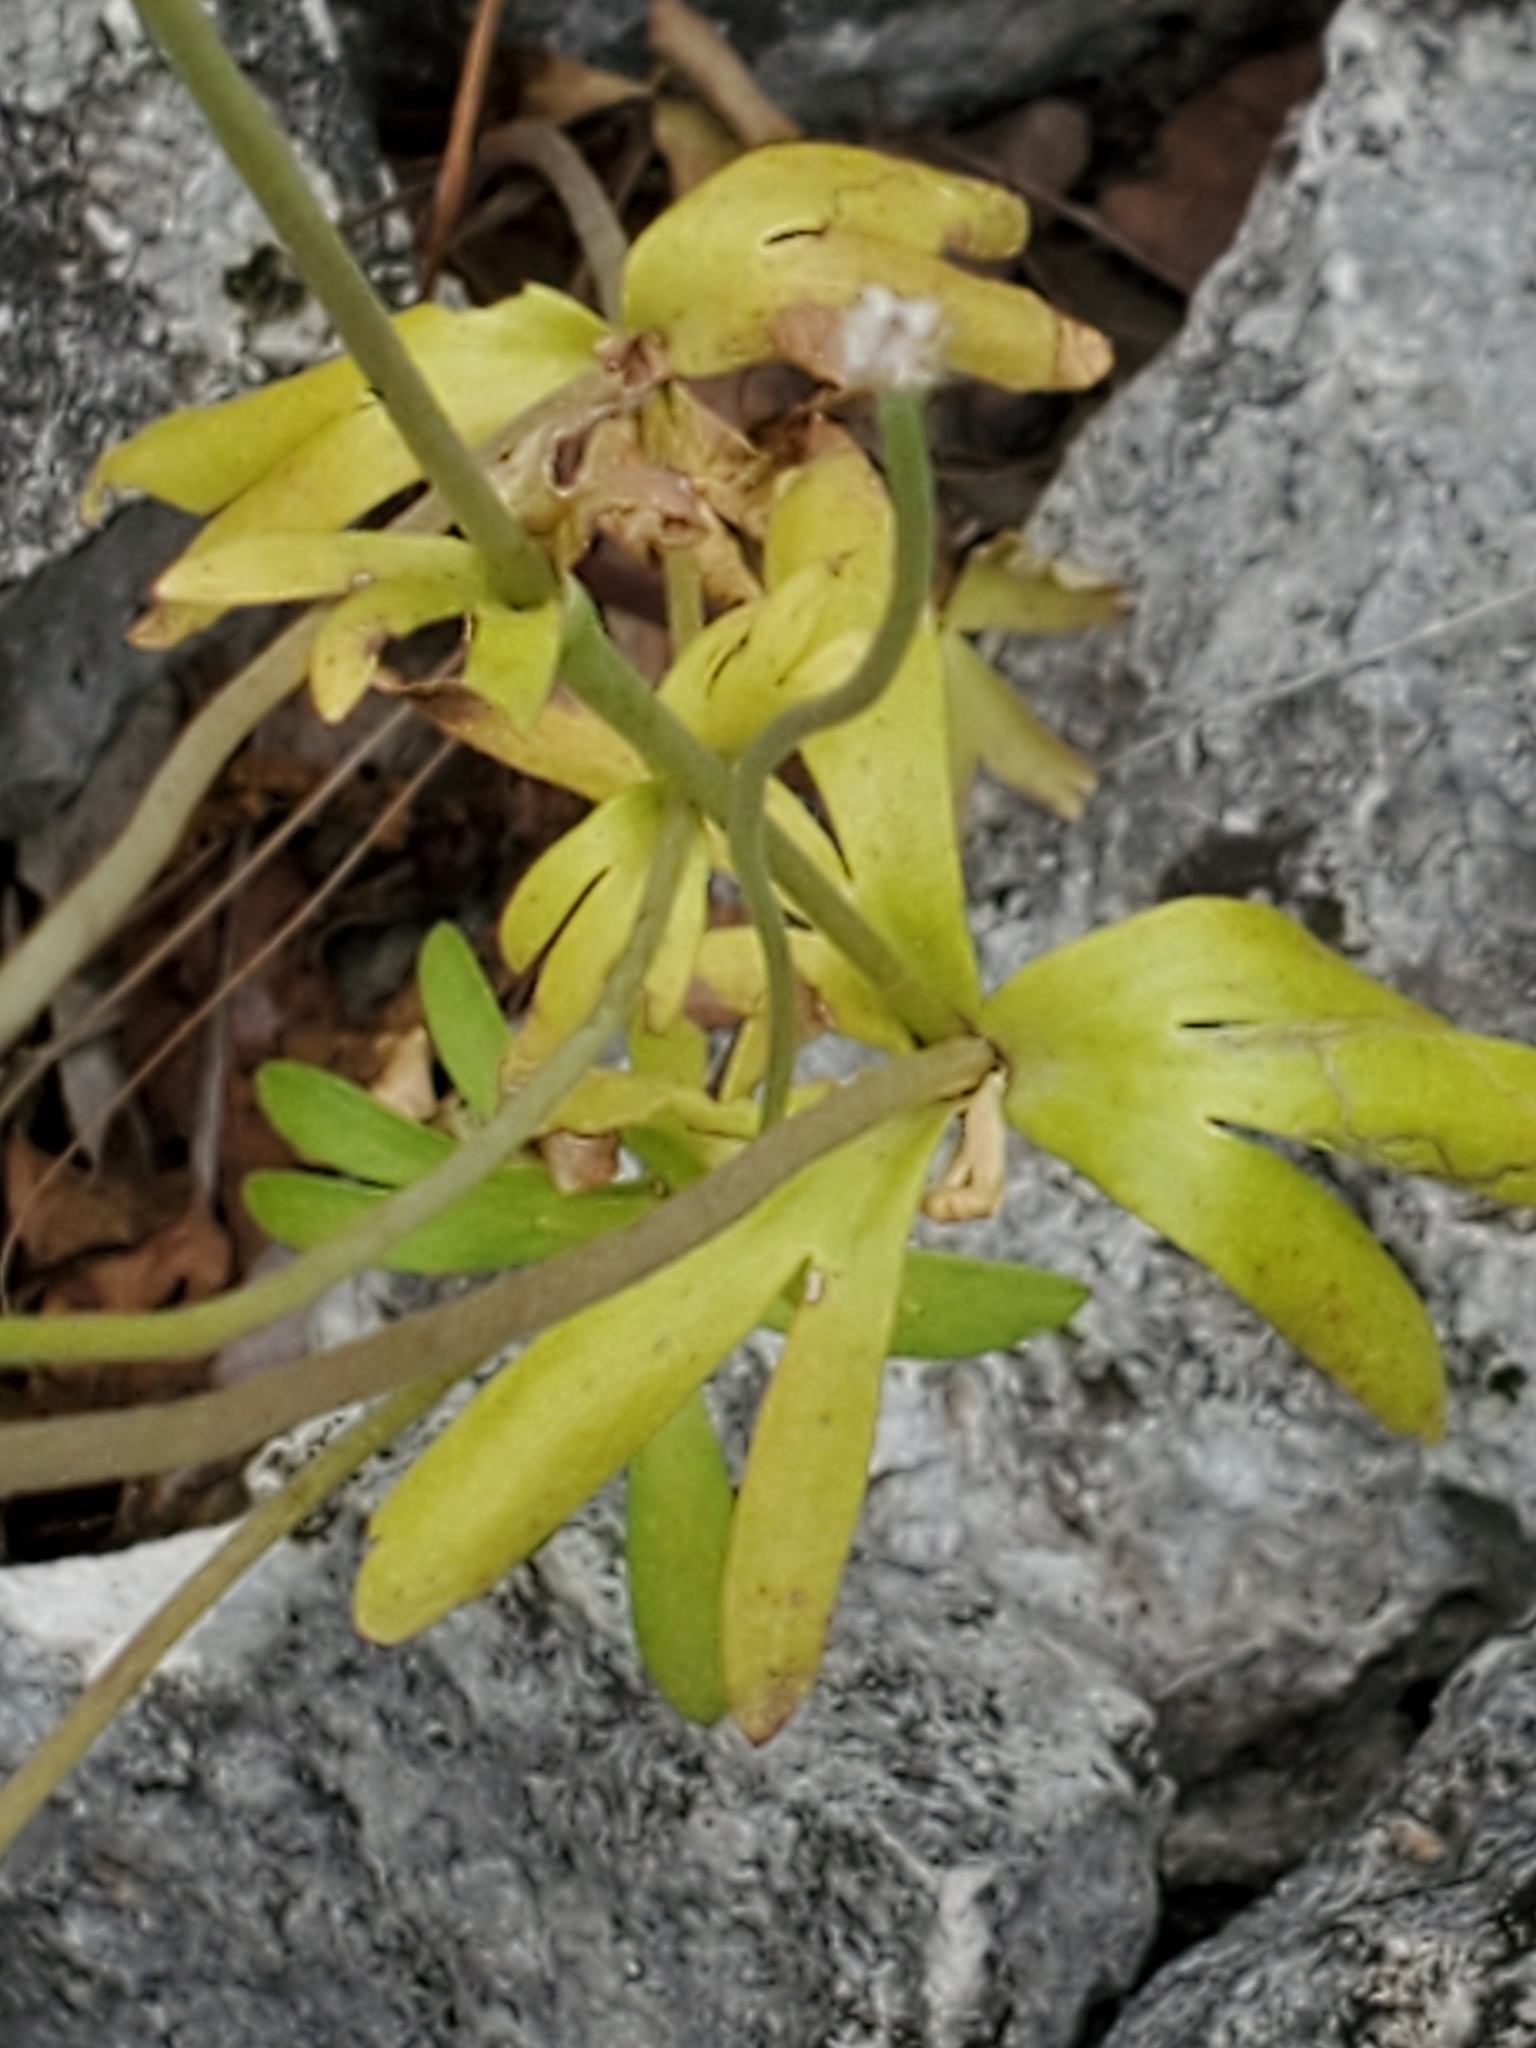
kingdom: Plantae
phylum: Tracheophyta
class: Magnoliopsida
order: Ranunculales
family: Ranunculaceae
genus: Anemone
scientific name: Anemone edwardsiana
